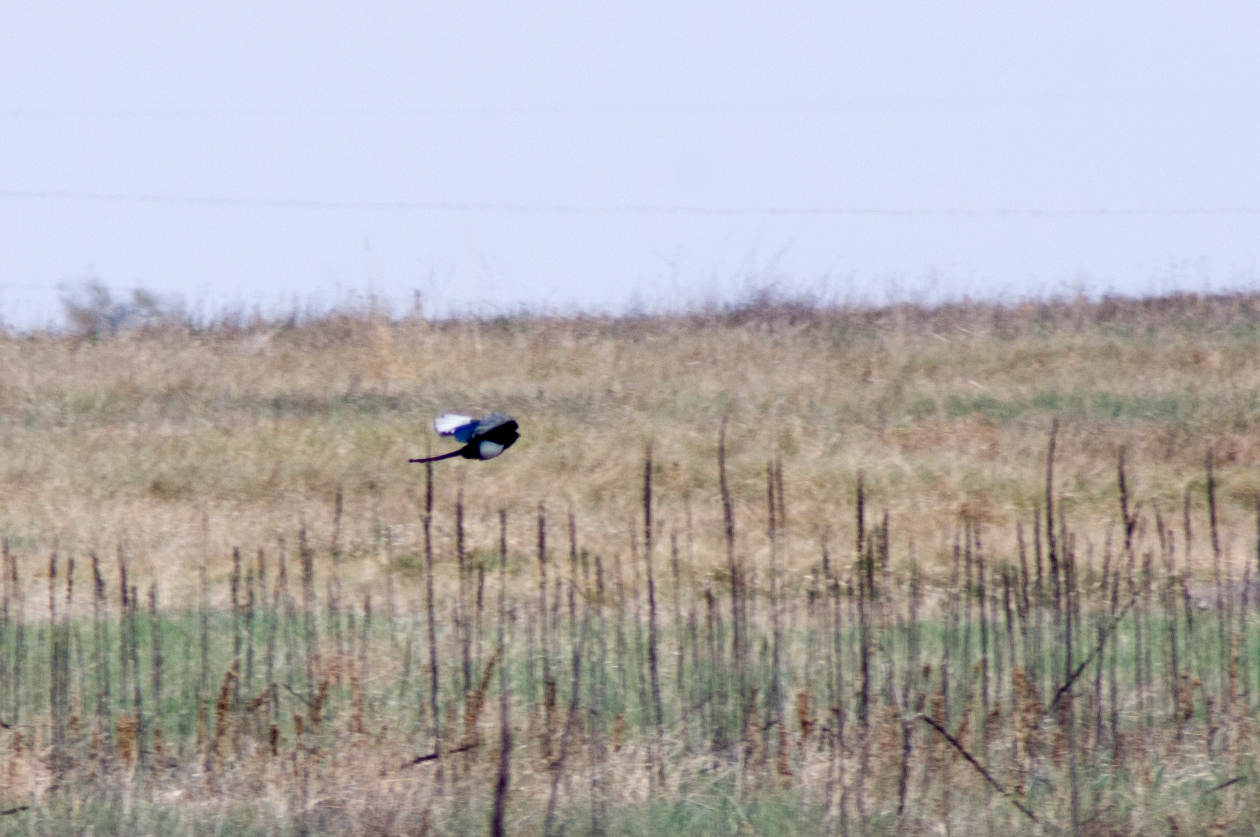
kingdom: Animalia
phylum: Chordata
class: Aves
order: Passeriformes
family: Corvidae
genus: Pica
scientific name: Pica hudsonia
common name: Black-billed magpie
